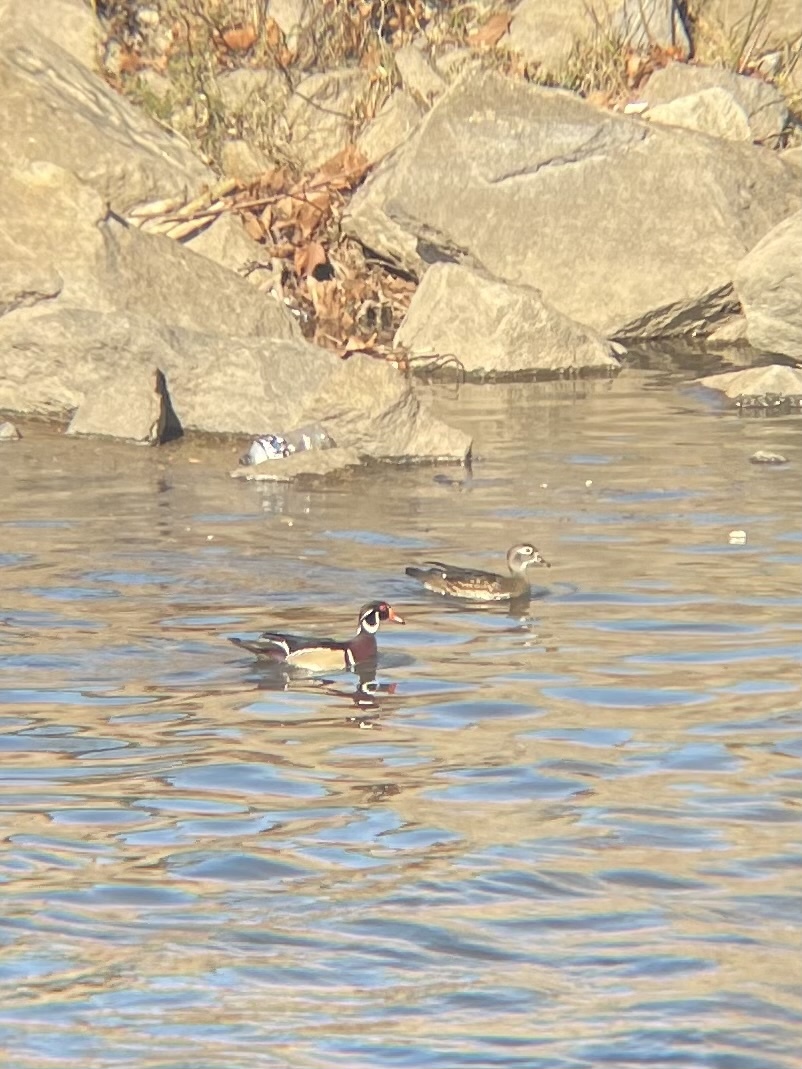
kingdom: Animalia
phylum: Chordata
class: Aves
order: Anseriformes
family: Anatidae
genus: Aix
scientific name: Aix sponsa
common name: Wood duck
